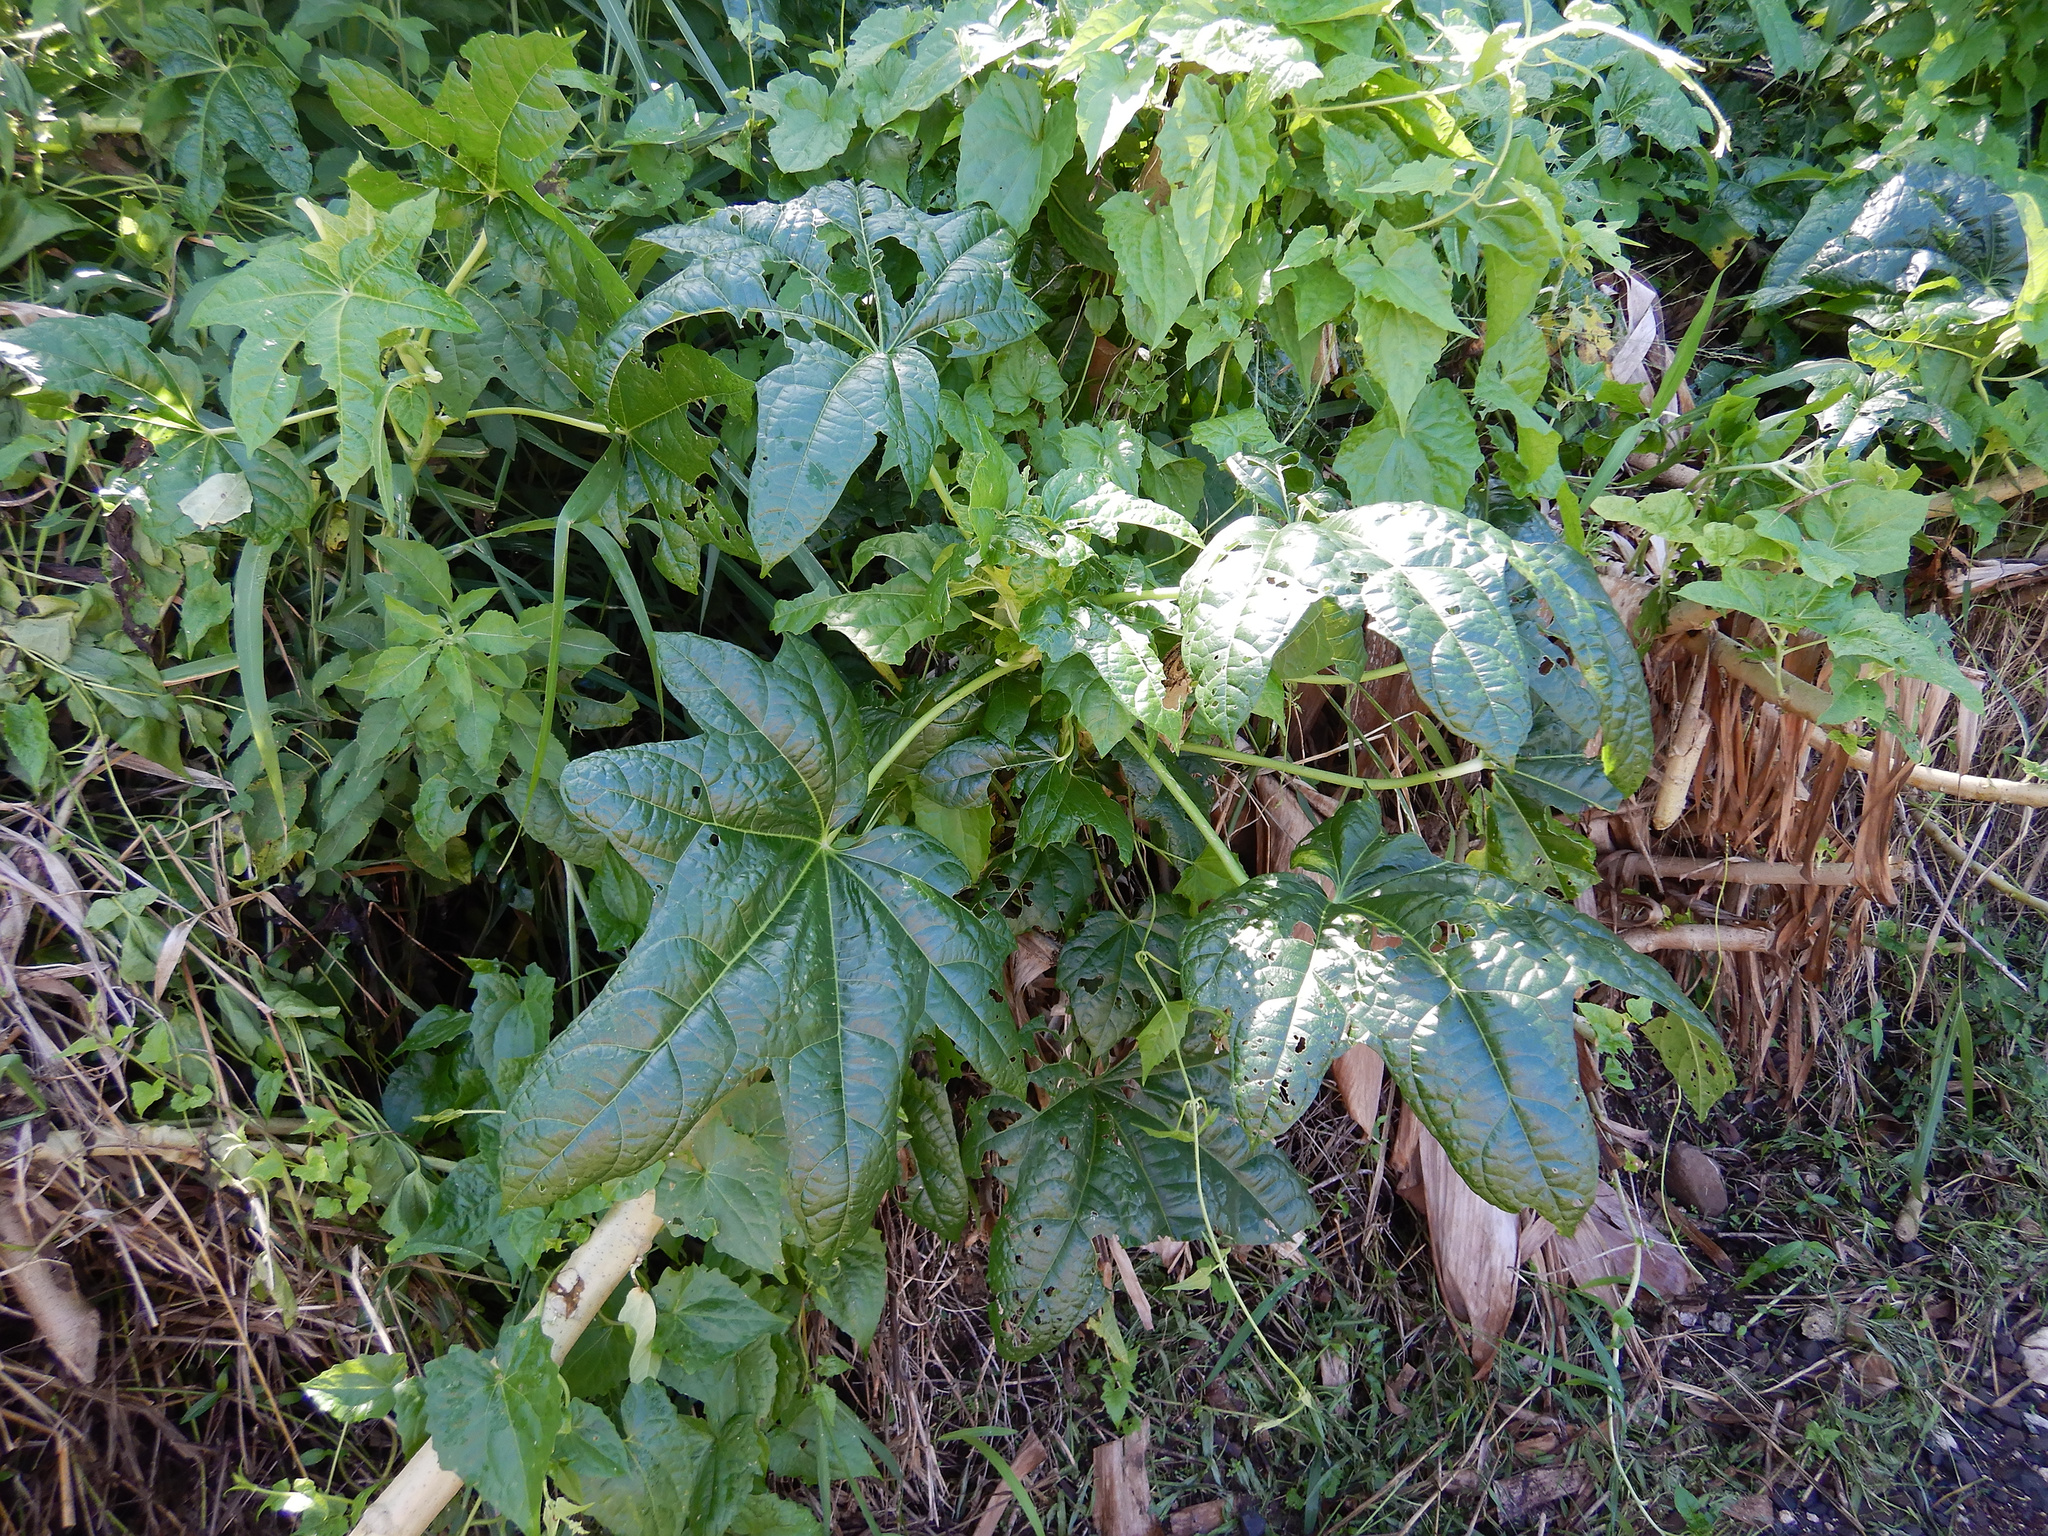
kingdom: Plantae
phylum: Tracheophyta
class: Magnoliopsida
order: Malvales
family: Malvaceae
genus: Abelmoschus
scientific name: Abelmoschus manihot
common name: Sunset muskmallow
